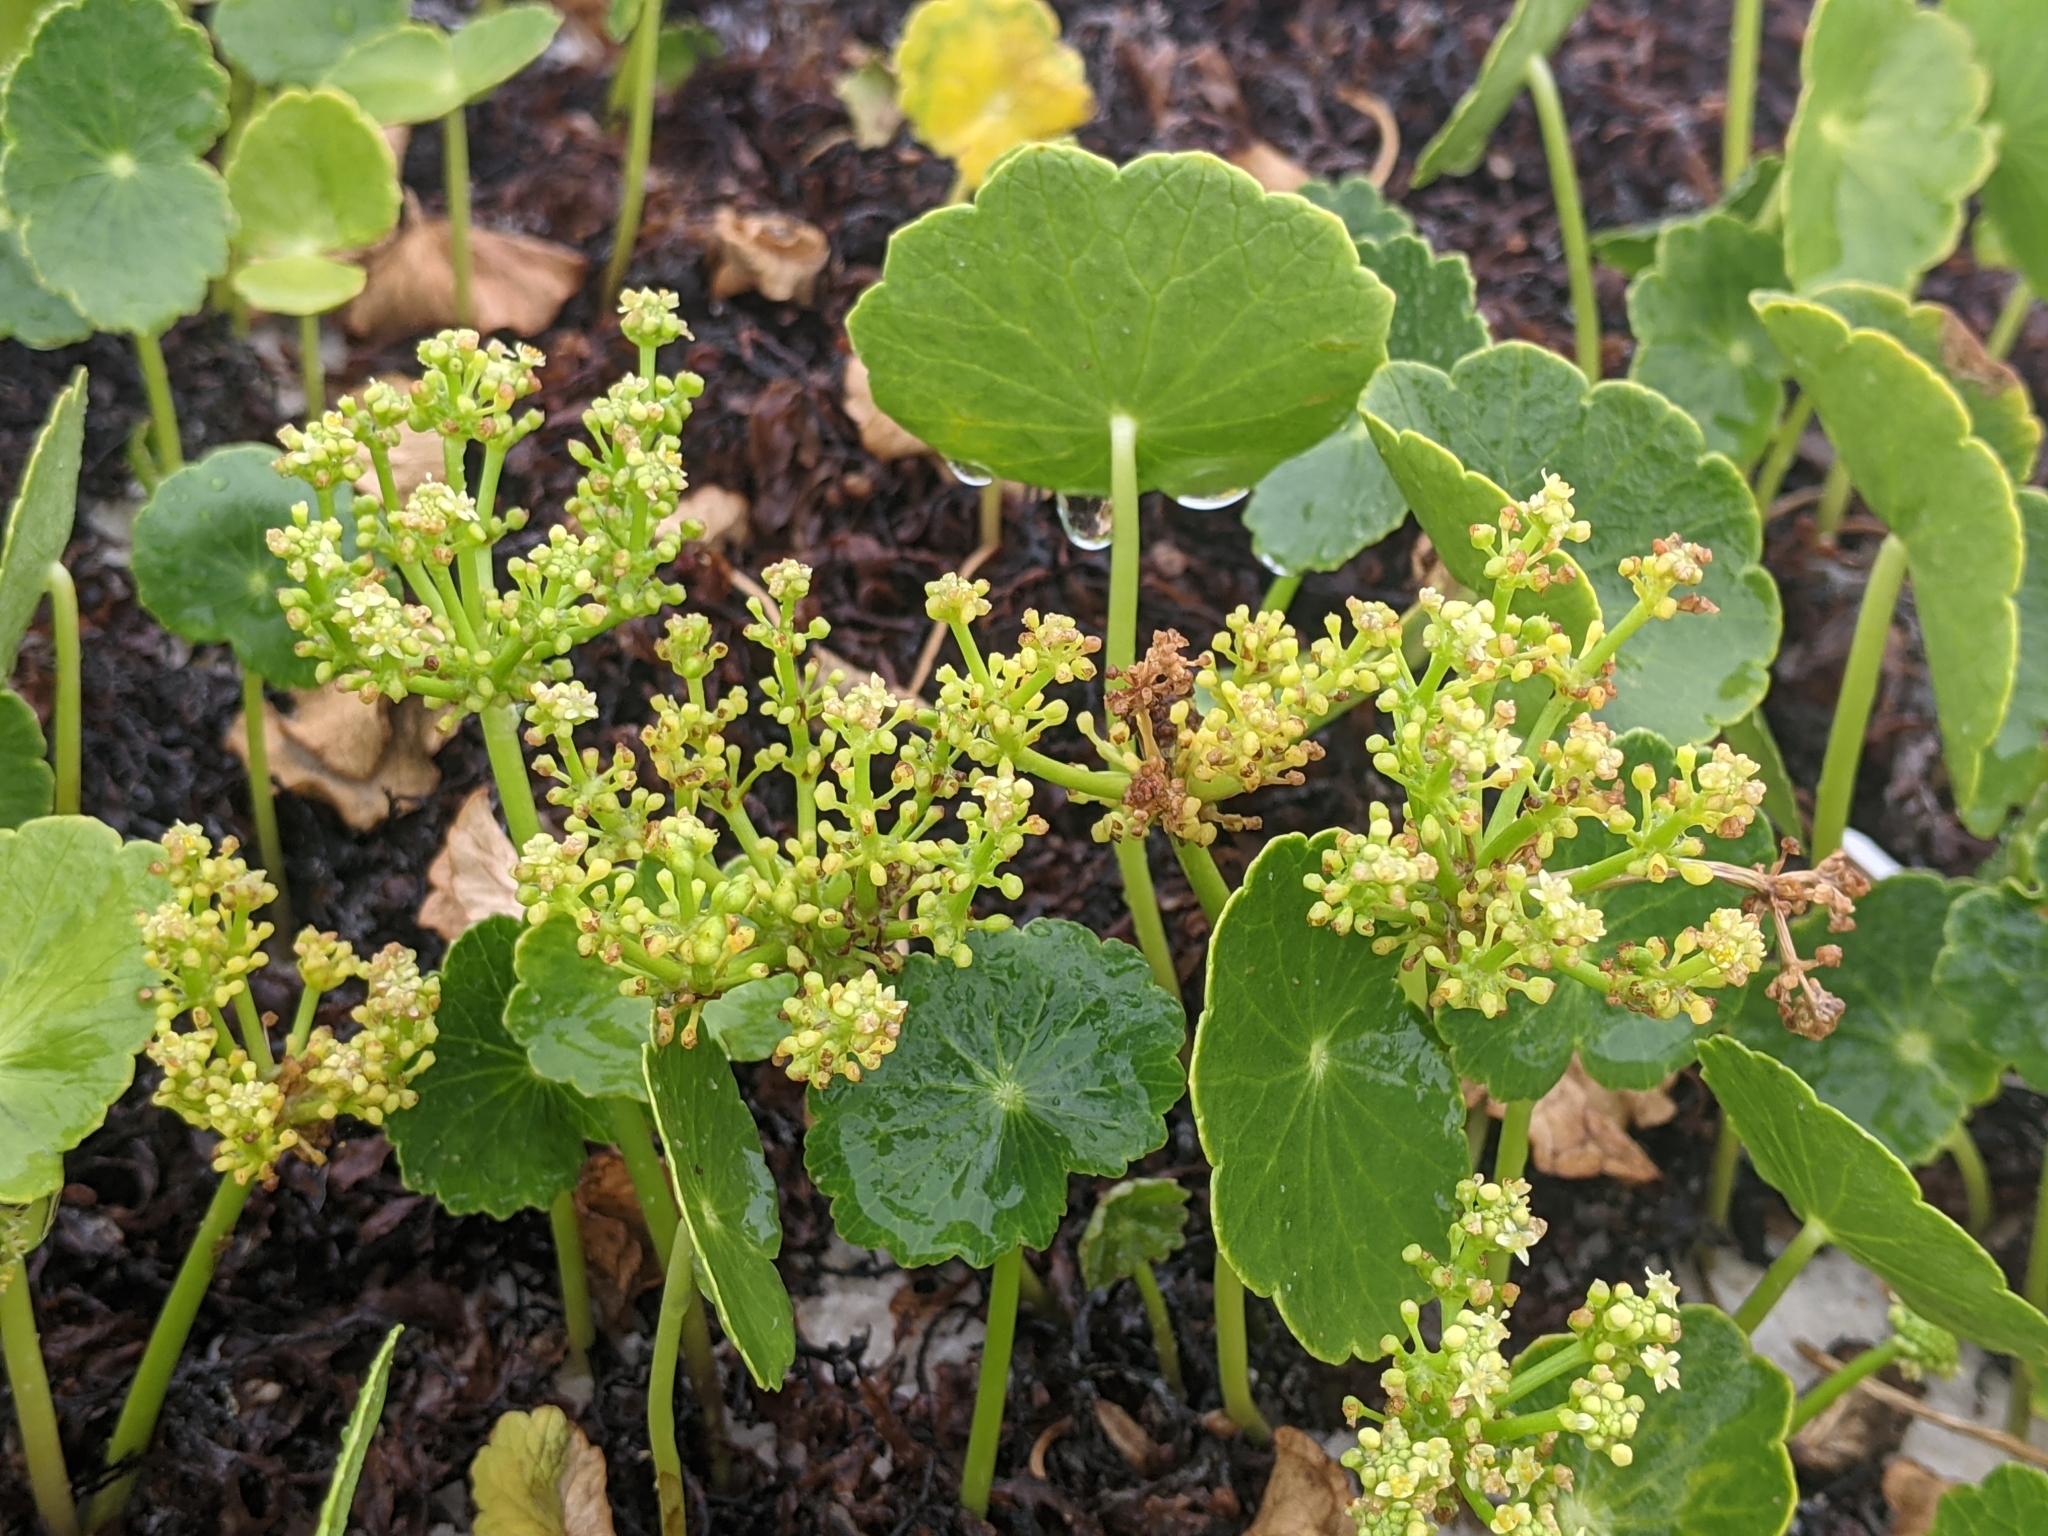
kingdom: Plantae
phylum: Tracheophyta
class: Magnoliopsida
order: Apiales
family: Araliaceae
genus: Hydrocotyle
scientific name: Hydrocotyle bonariensis
